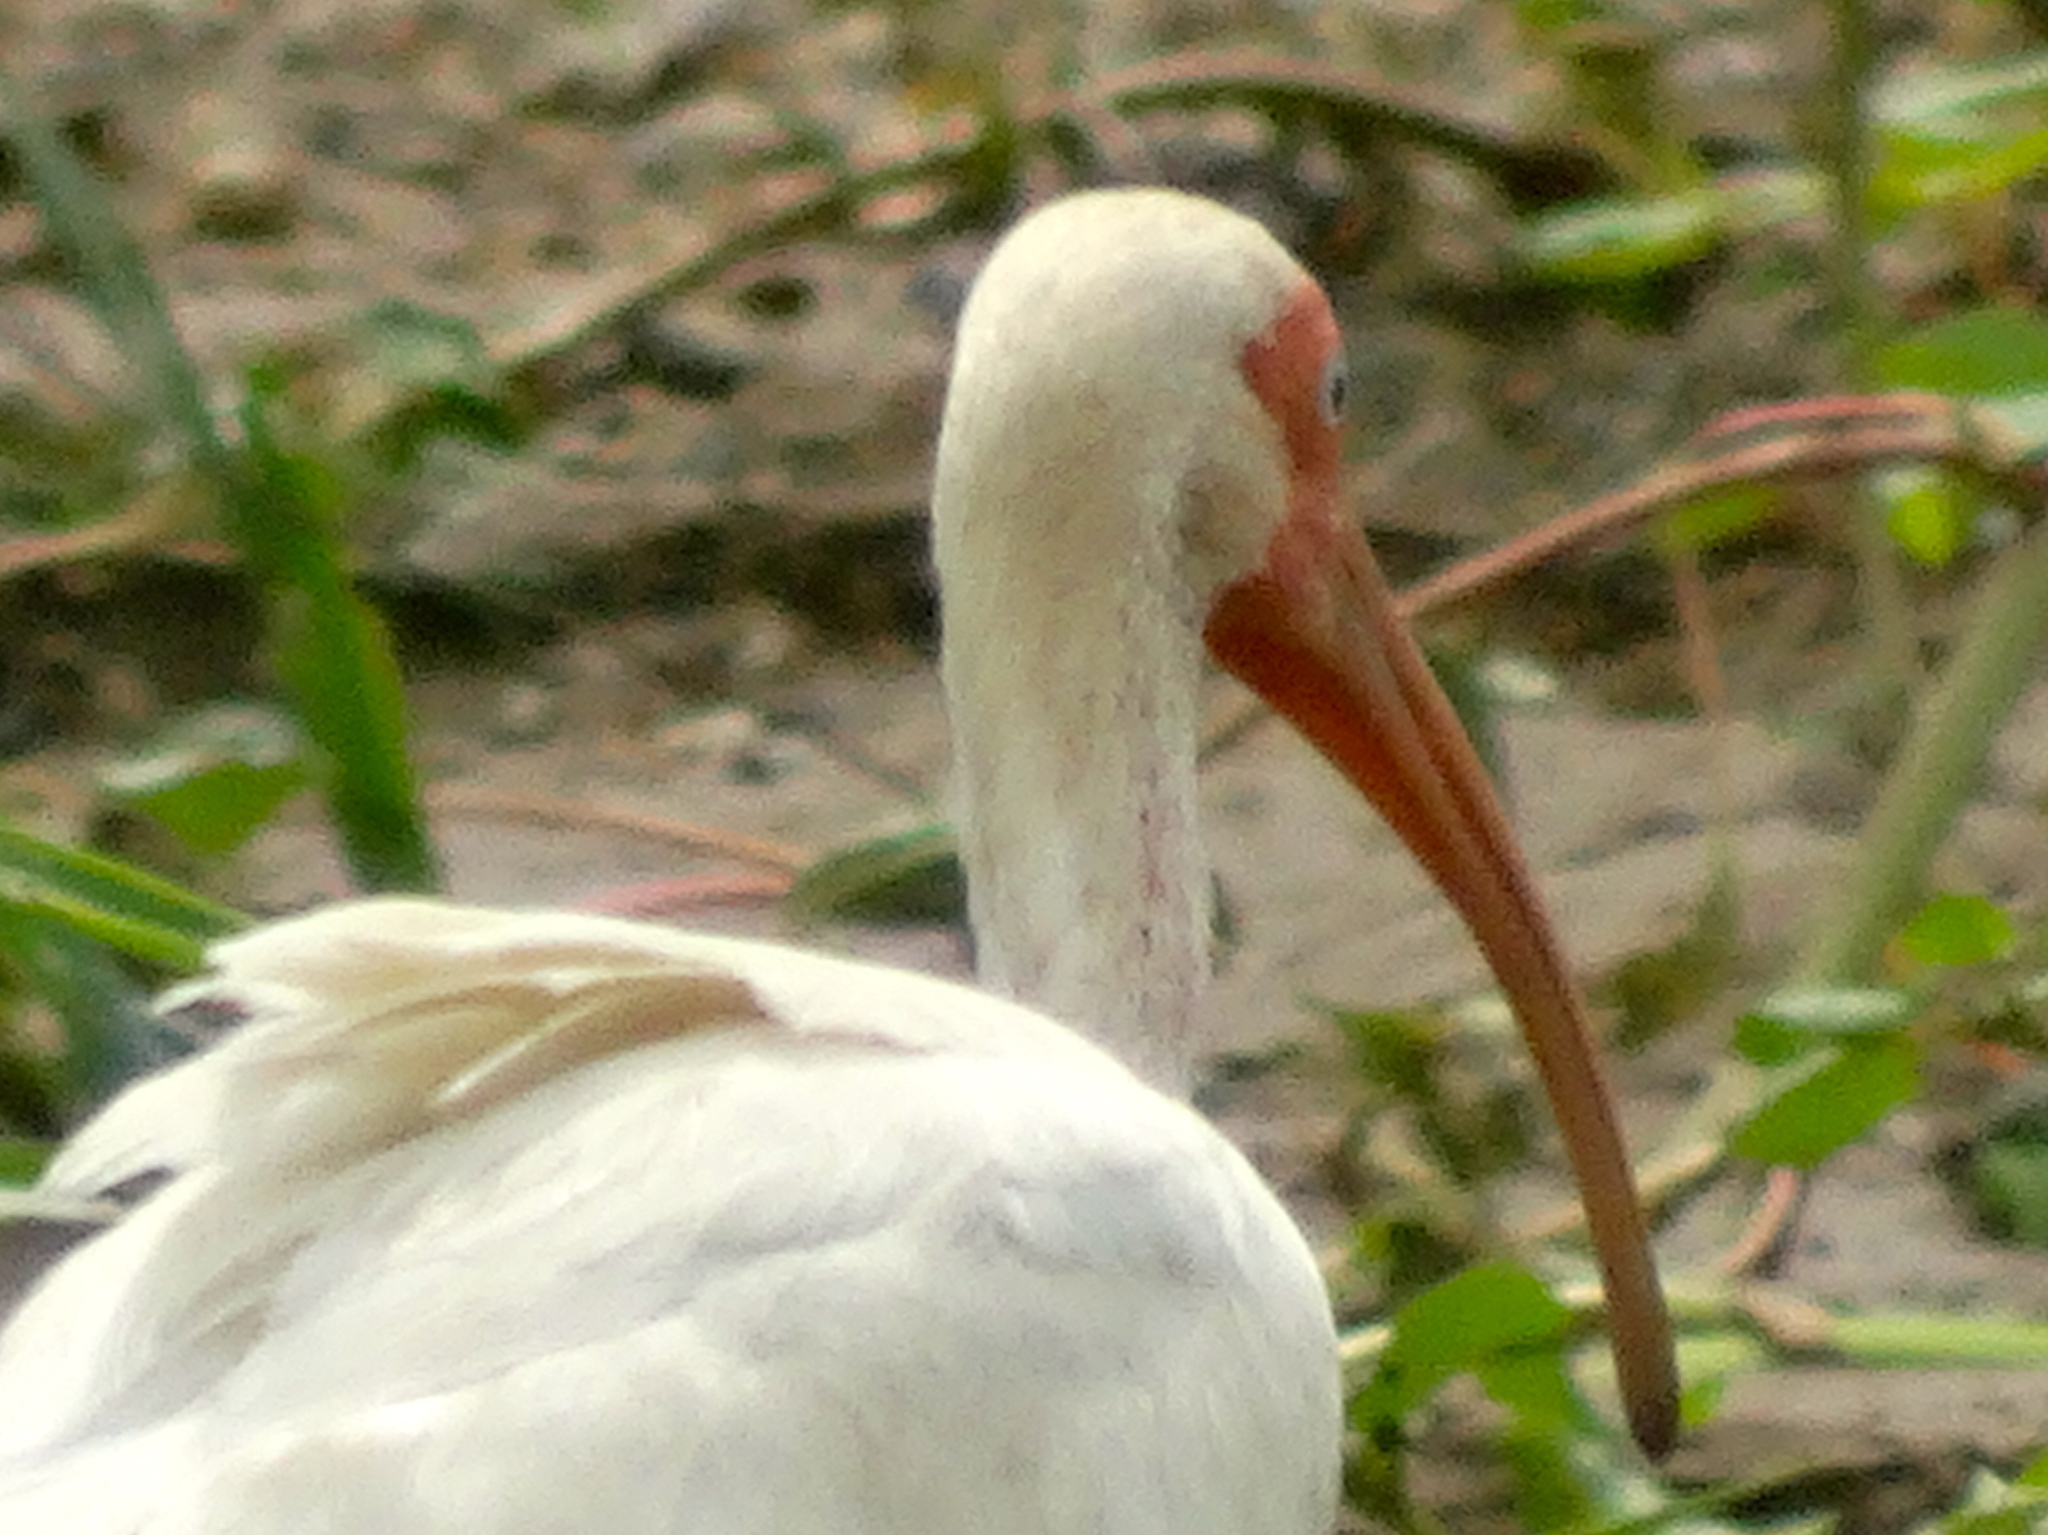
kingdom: Animalia
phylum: Chordata
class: Aves
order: Pelecaniformes
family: Threskiornithidae
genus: Eudocimus
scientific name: Eudocimus albus
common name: White ibis
